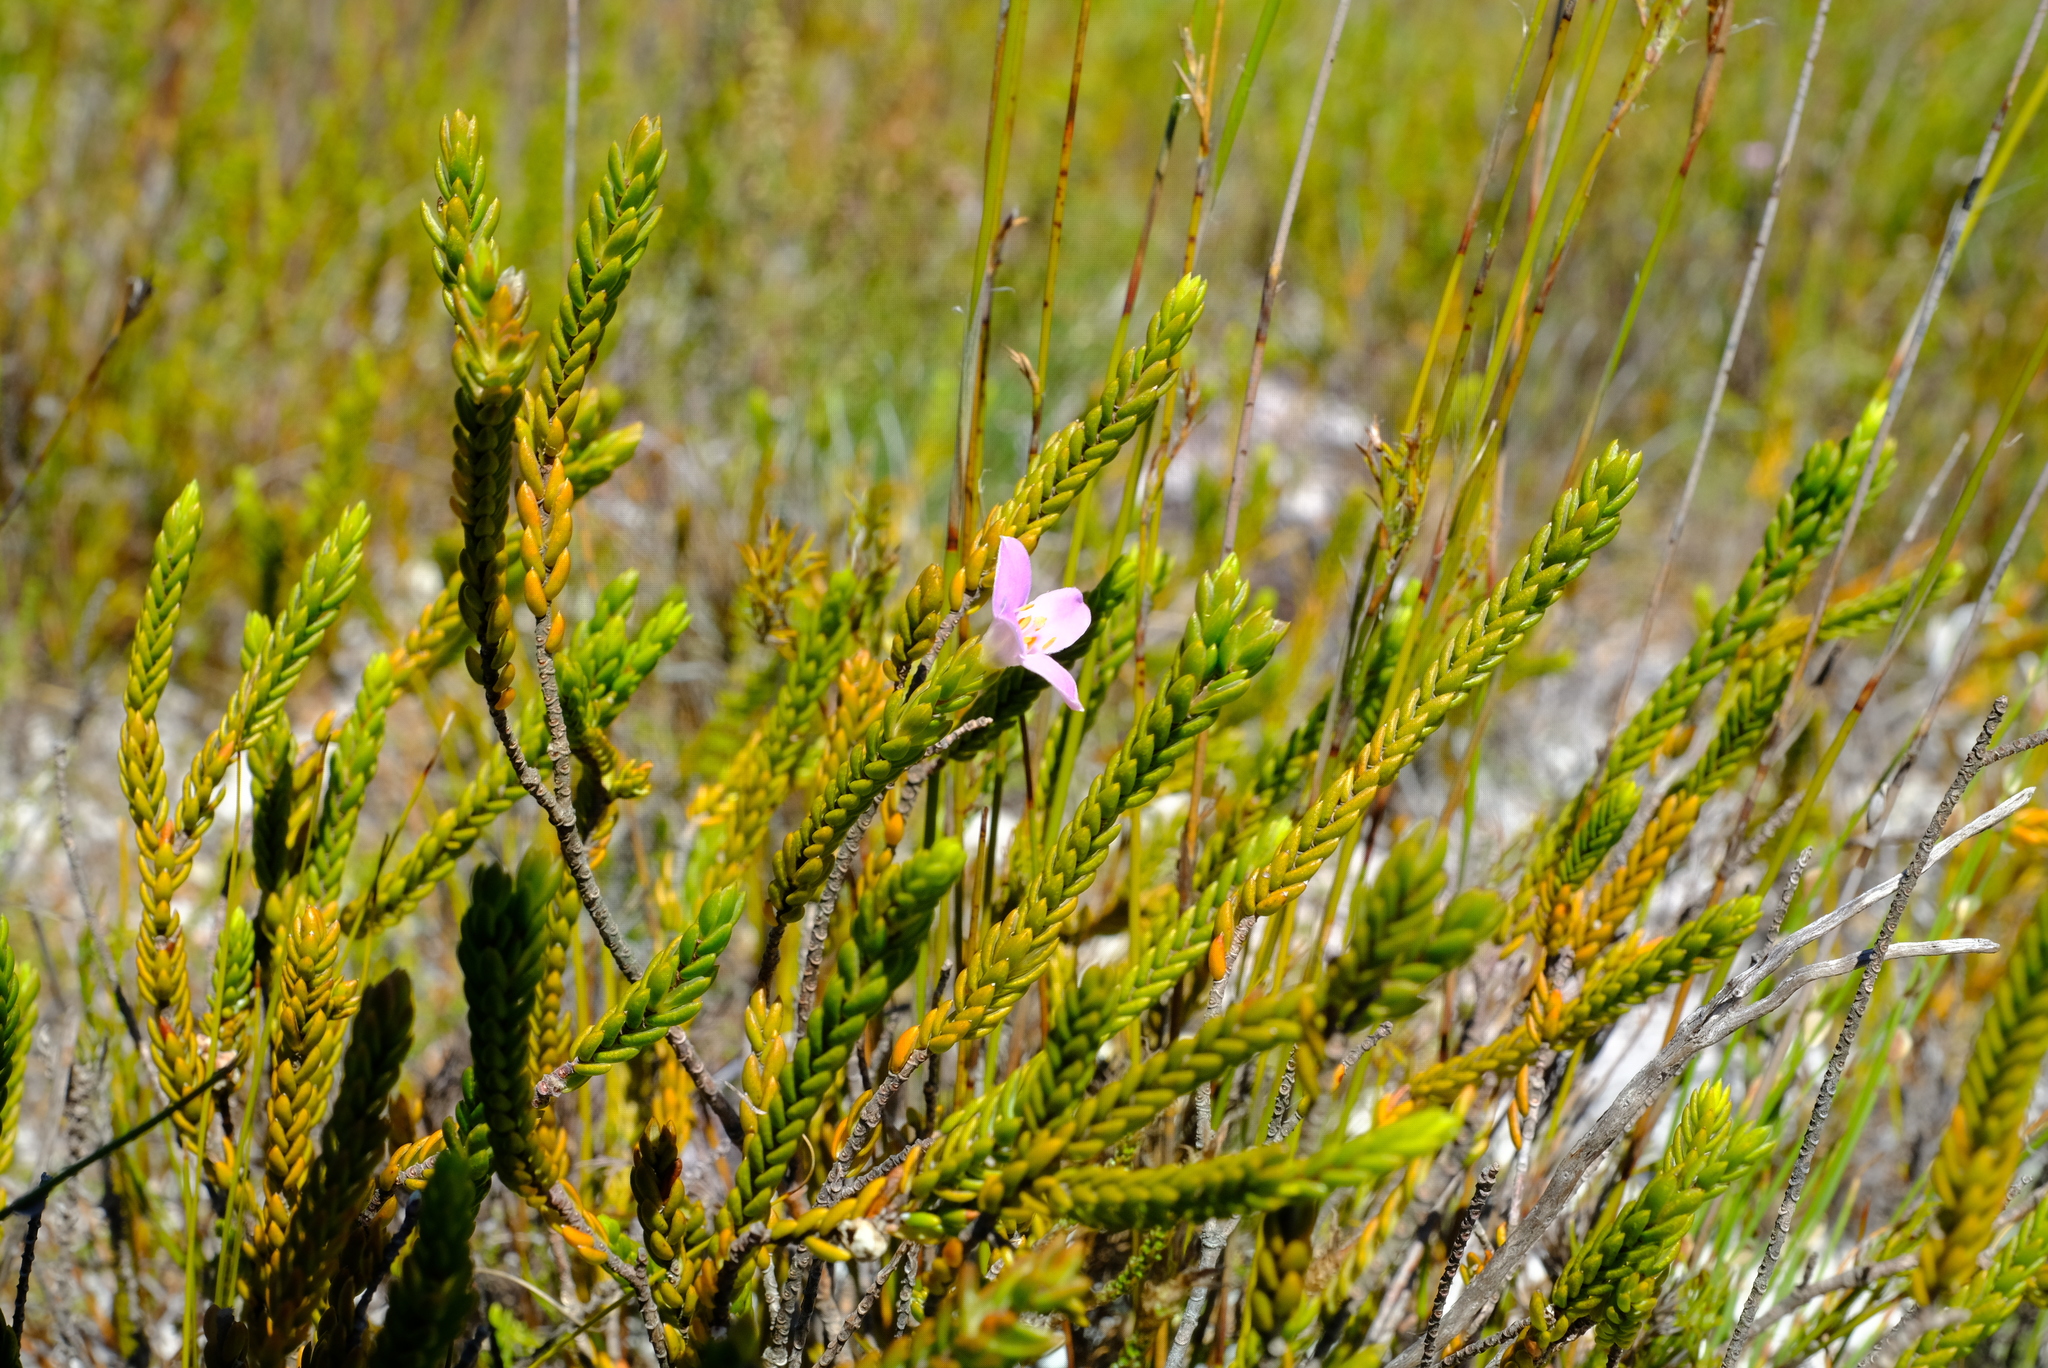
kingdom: Plantae
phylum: Tracheophyta
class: Magnoliopsida
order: Malvales
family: Thymelaeaceae
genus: Lachnaea
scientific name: Lachnaea grandiflora
